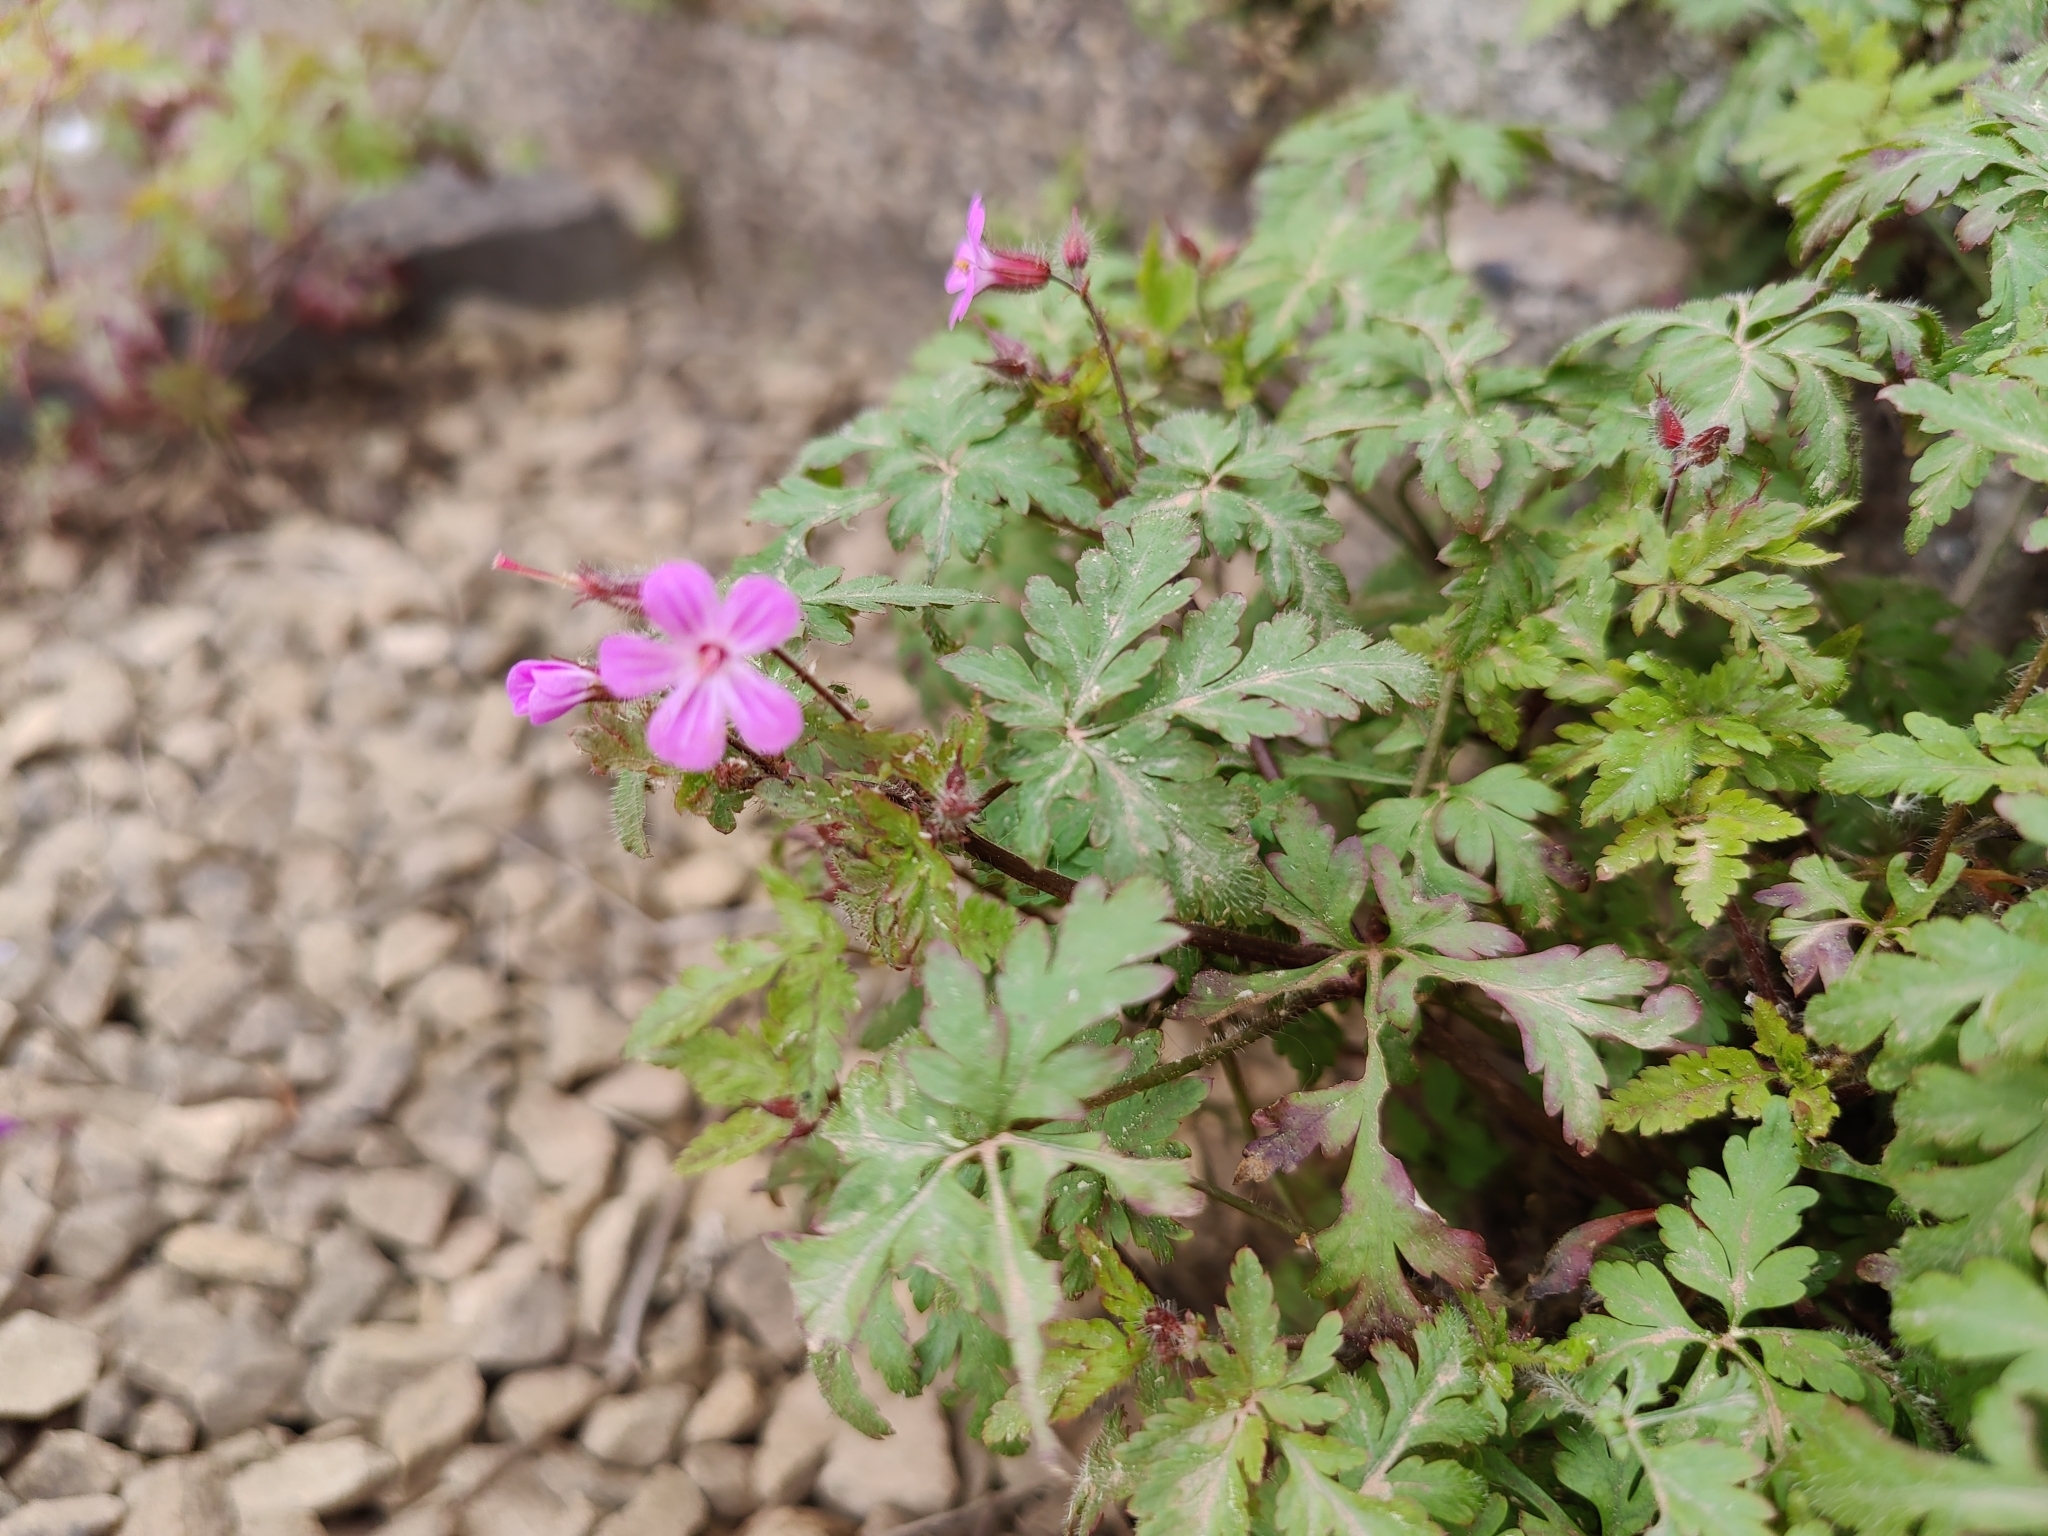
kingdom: Plantae
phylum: Tracheophyta
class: Magnoliopsida
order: Geraniales
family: Geraniaceae
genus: Geranium
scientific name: Geranium robertianum
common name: Herb-robert
